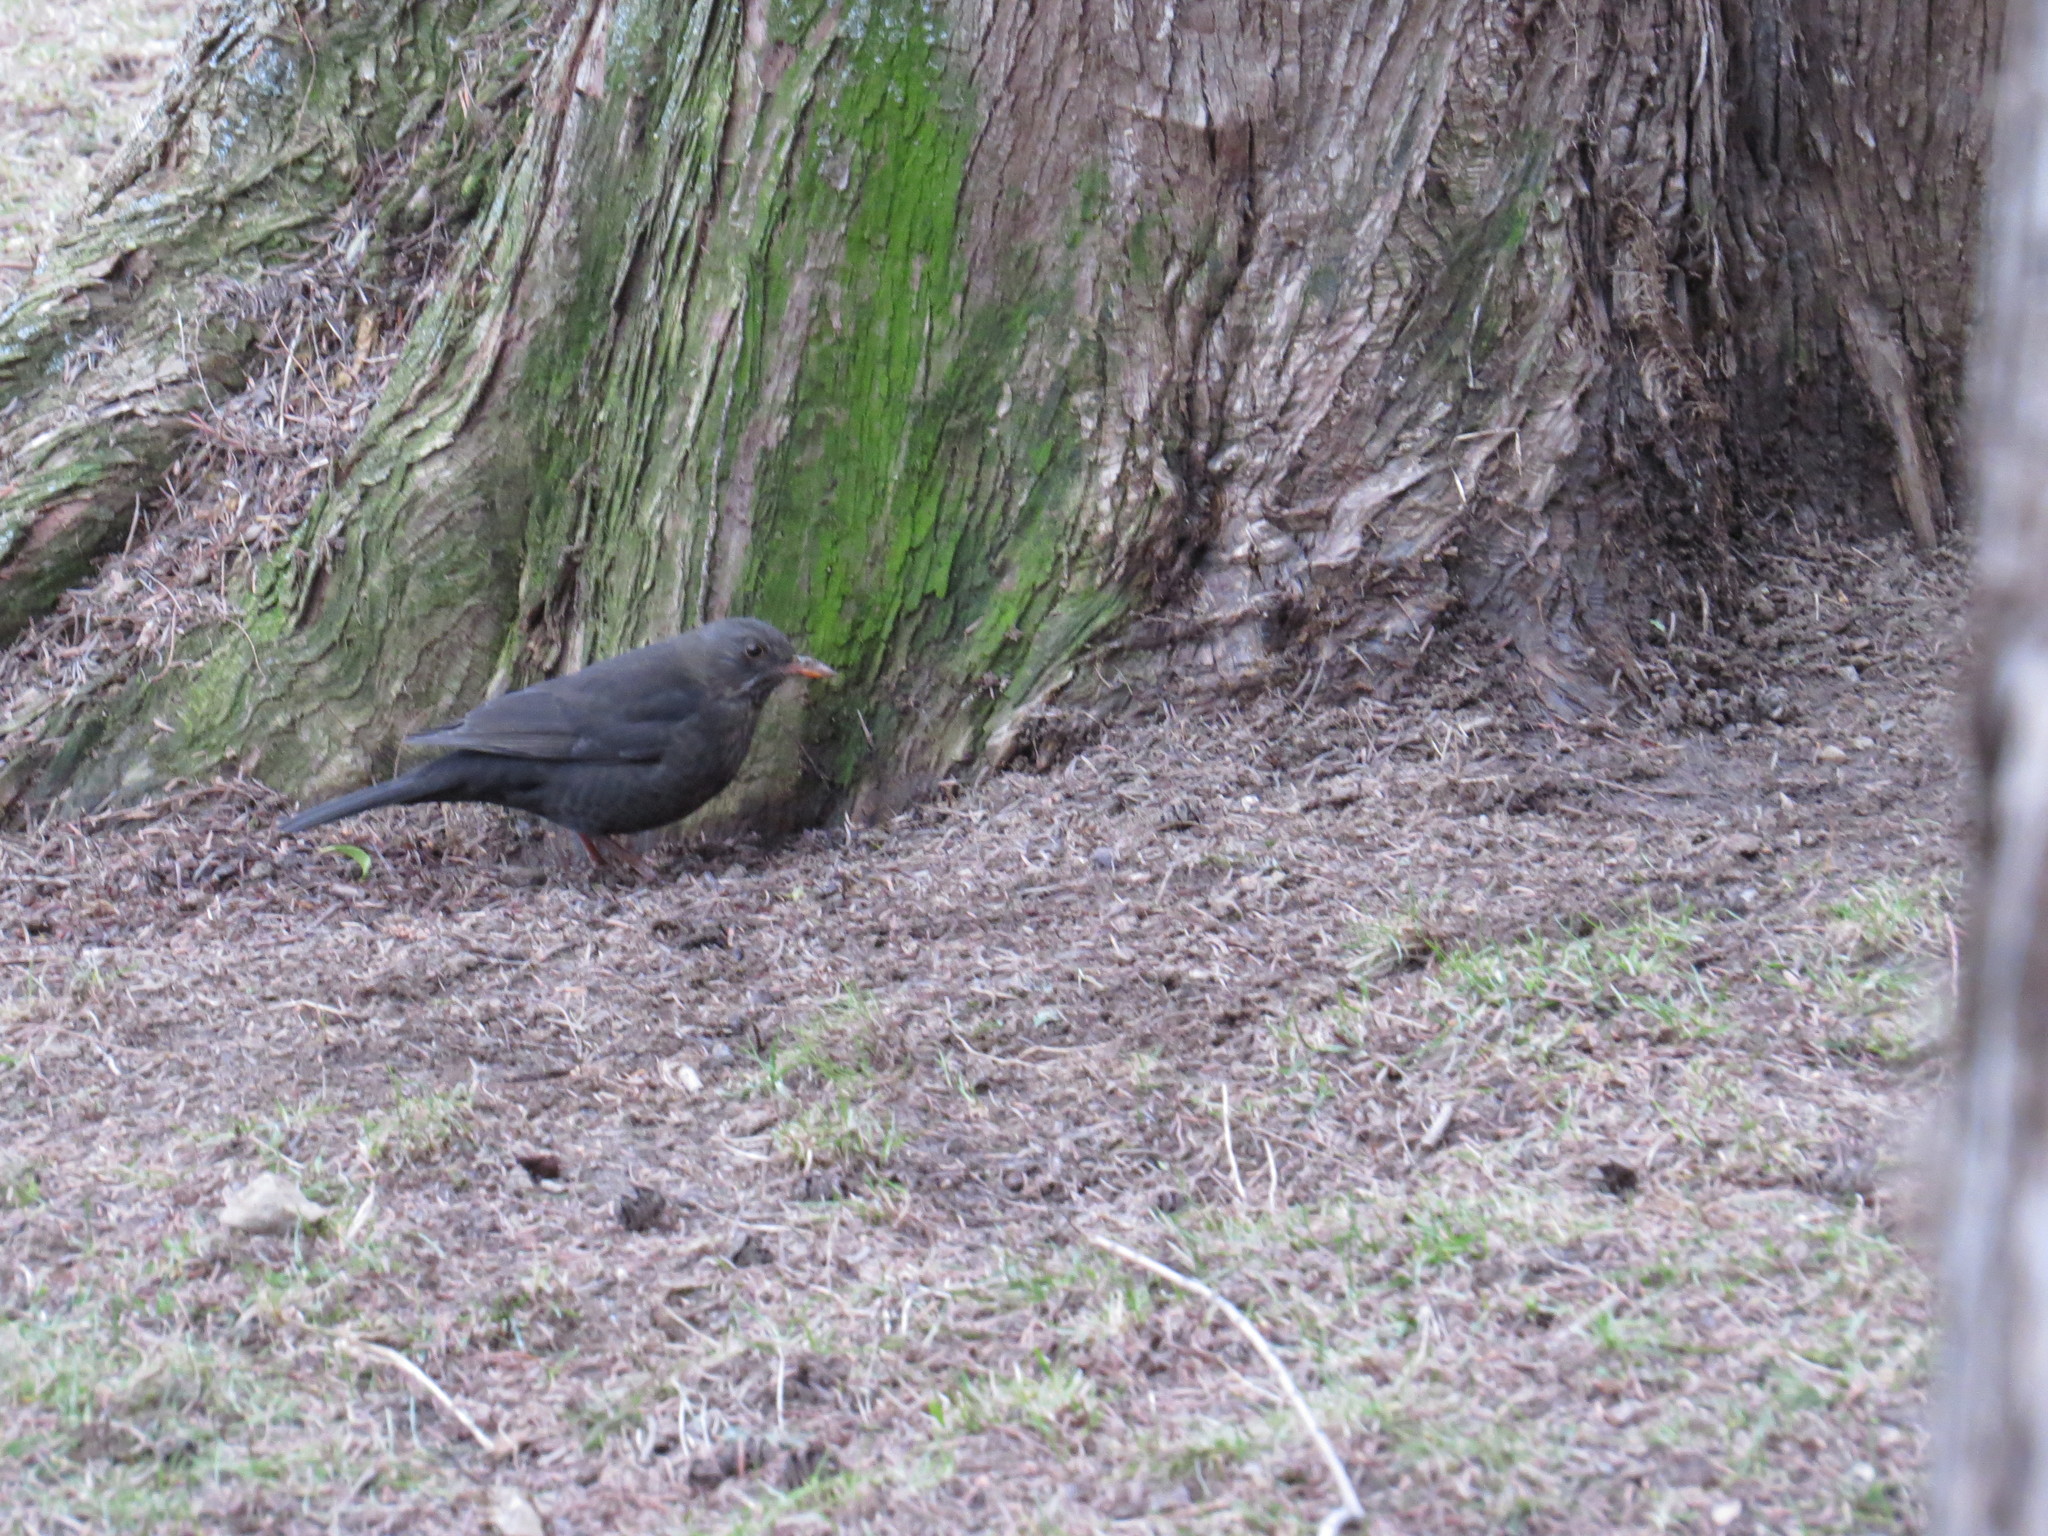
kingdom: Animalia
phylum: Chordata
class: Aves
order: Passeriformes
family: Turdidae
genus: Turdus
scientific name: Turdus merula
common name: Common blackbird
